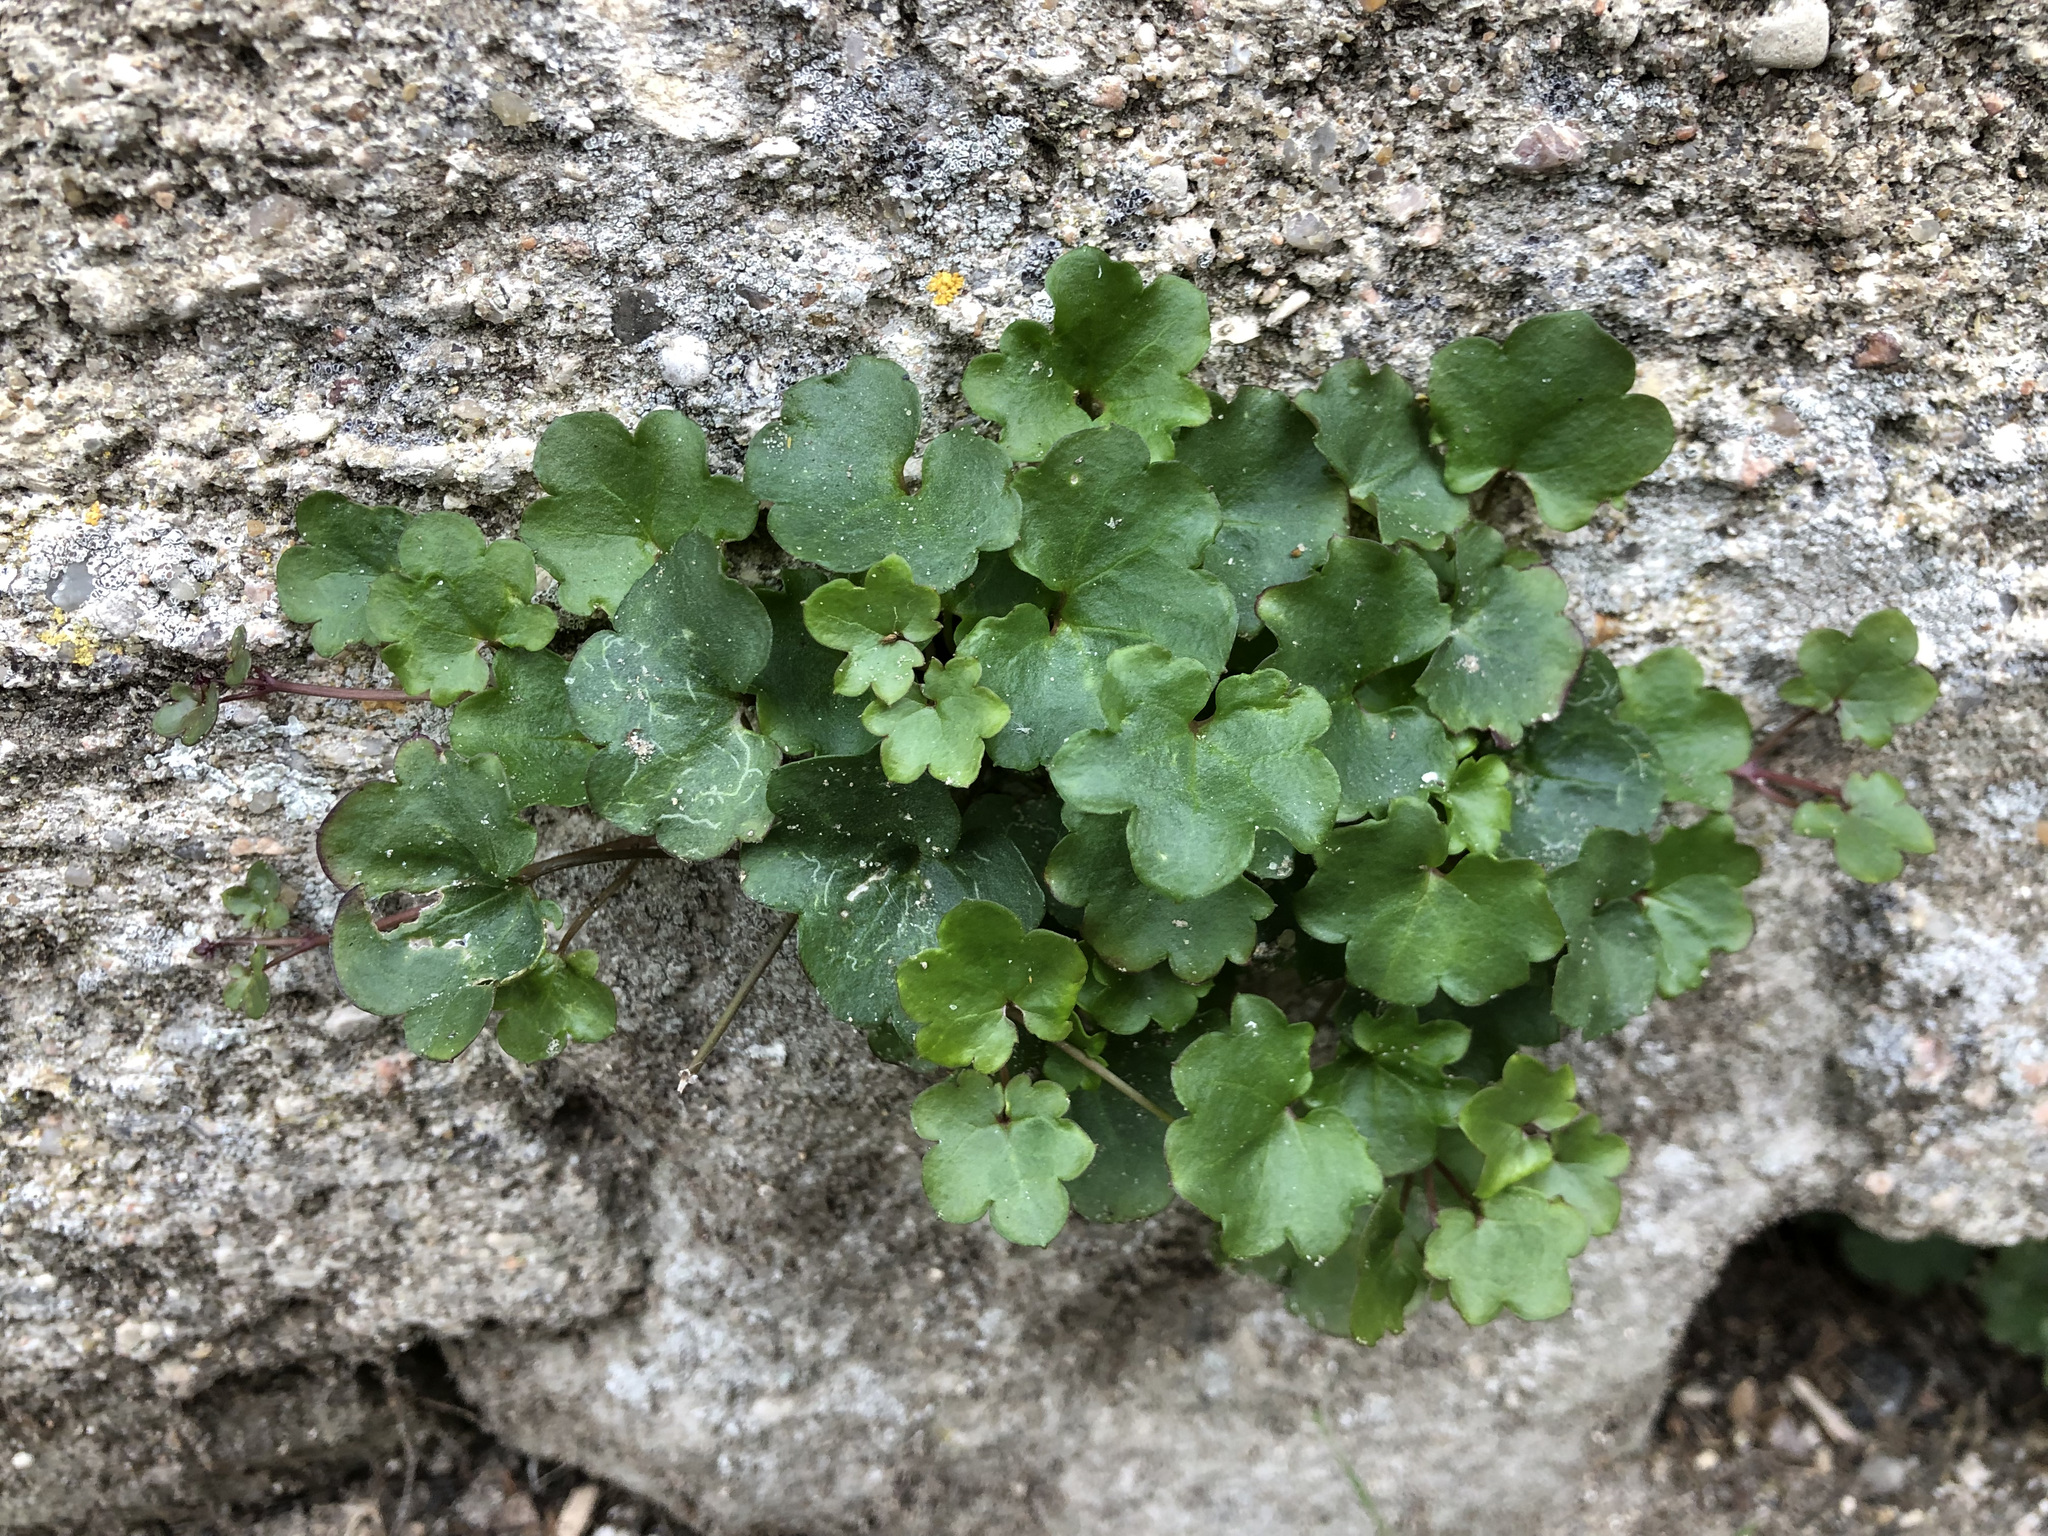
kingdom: Plantae
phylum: Tracheophyta
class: Magnoliopsida
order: Lamiales
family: Plantaginaceae
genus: Cymbalaria
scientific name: Cymbalaria muralis
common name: Ivy-leaved toadflax
